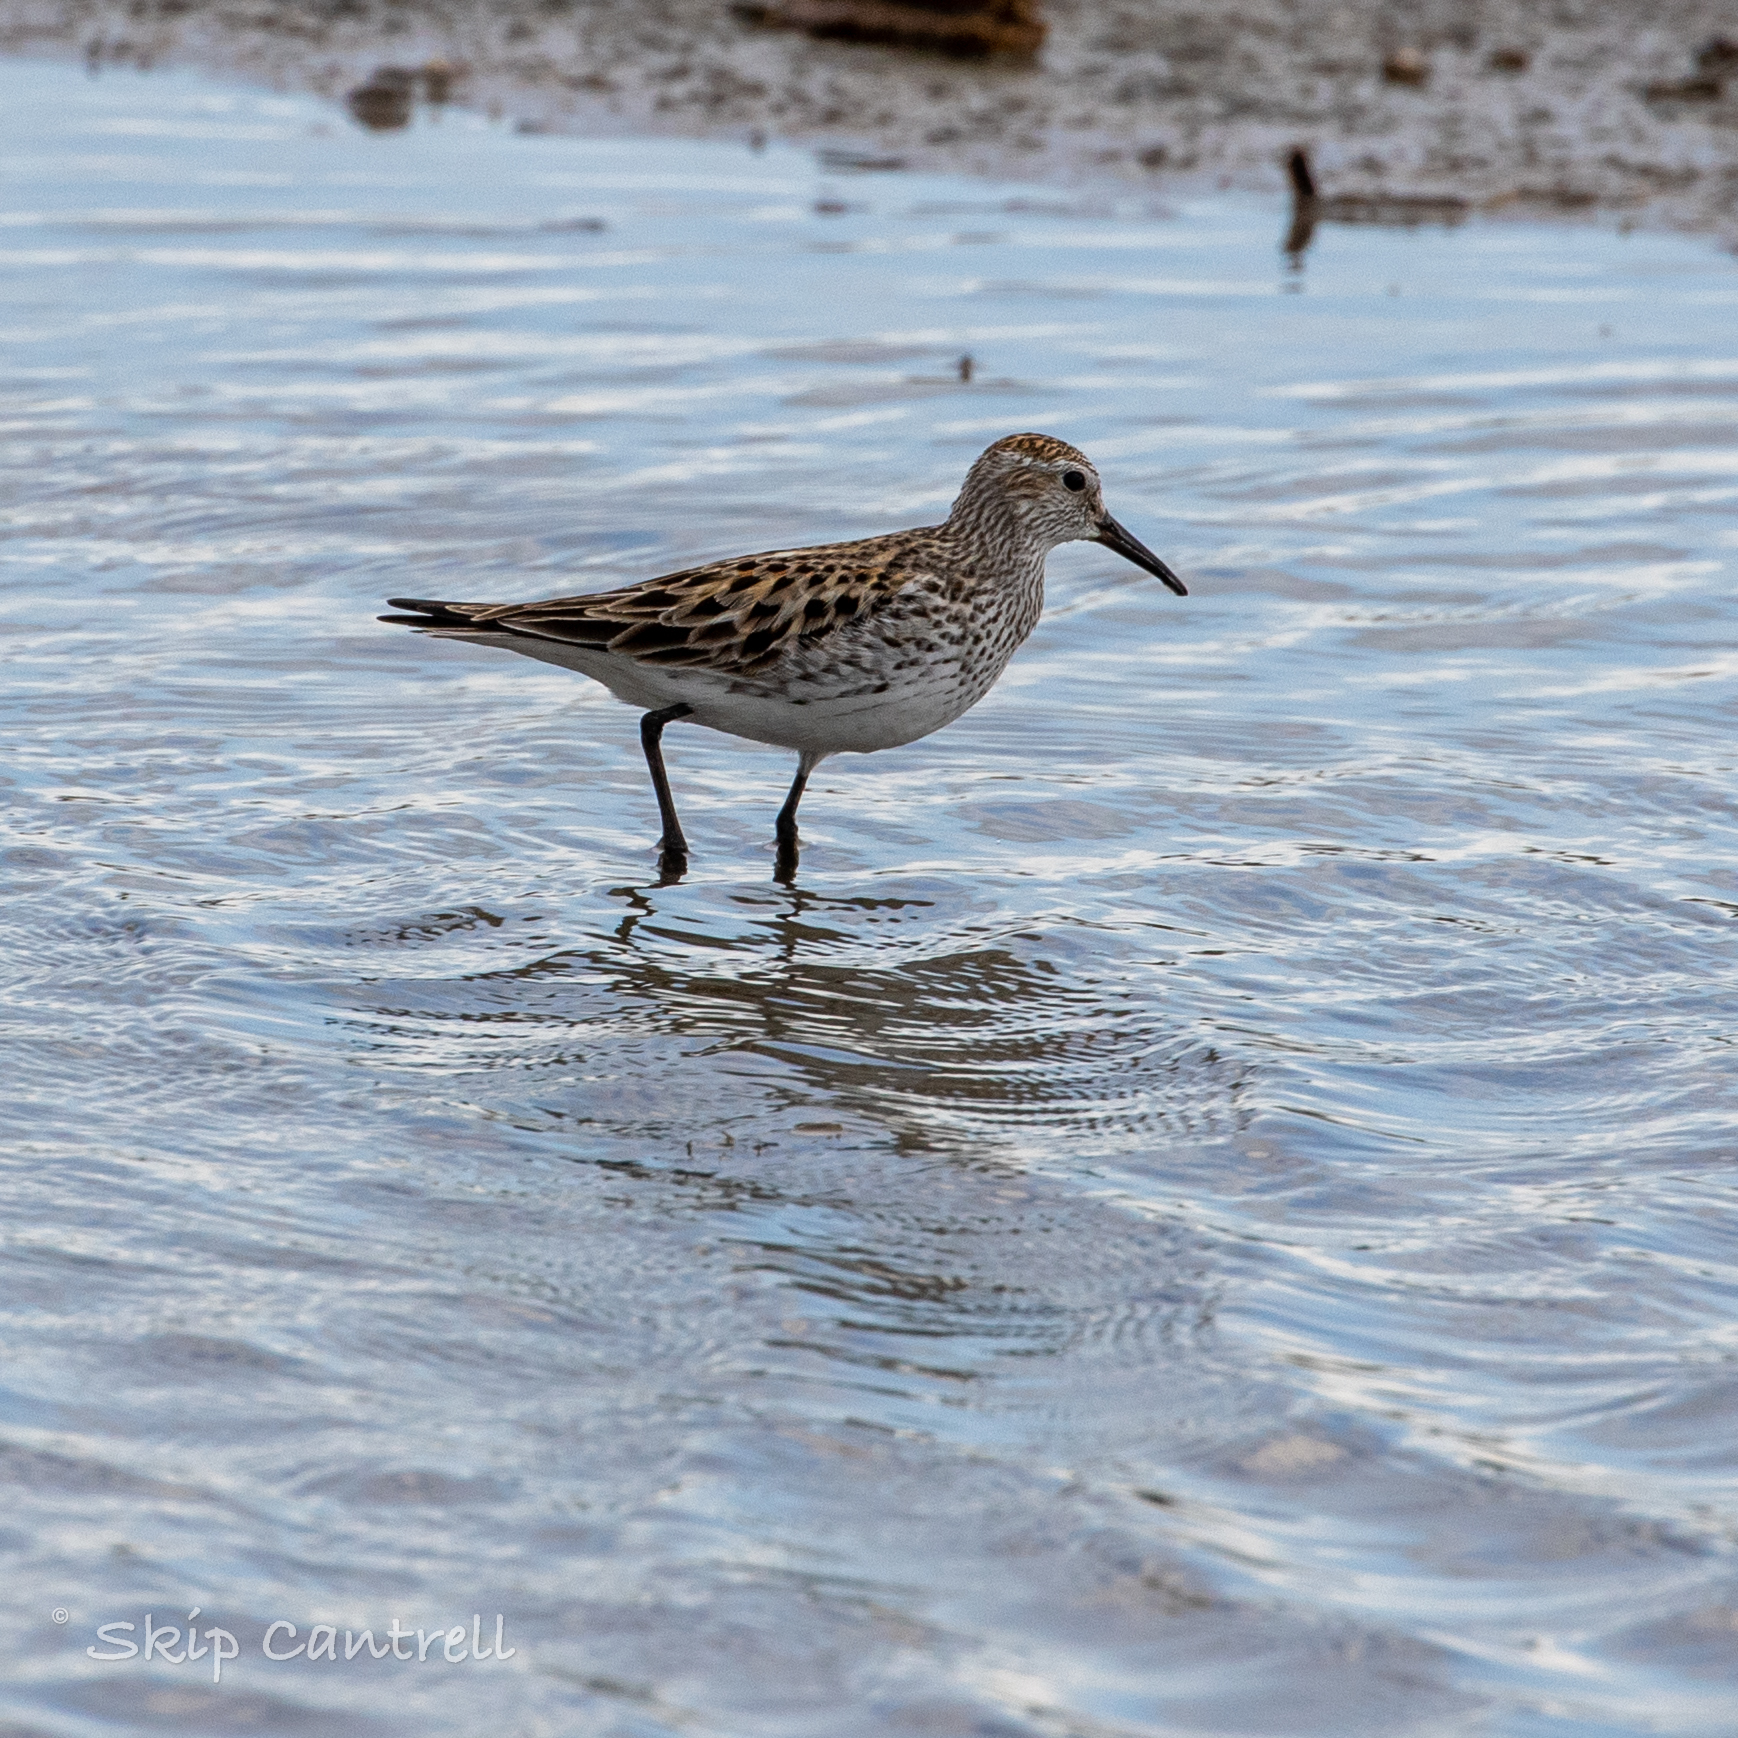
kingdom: Animalia
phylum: Chordata
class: Aves
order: Charadriiformes
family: Scolopacidae
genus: Calidris
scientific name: Calidris fuscicollis
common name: White-rumped sandpiper
